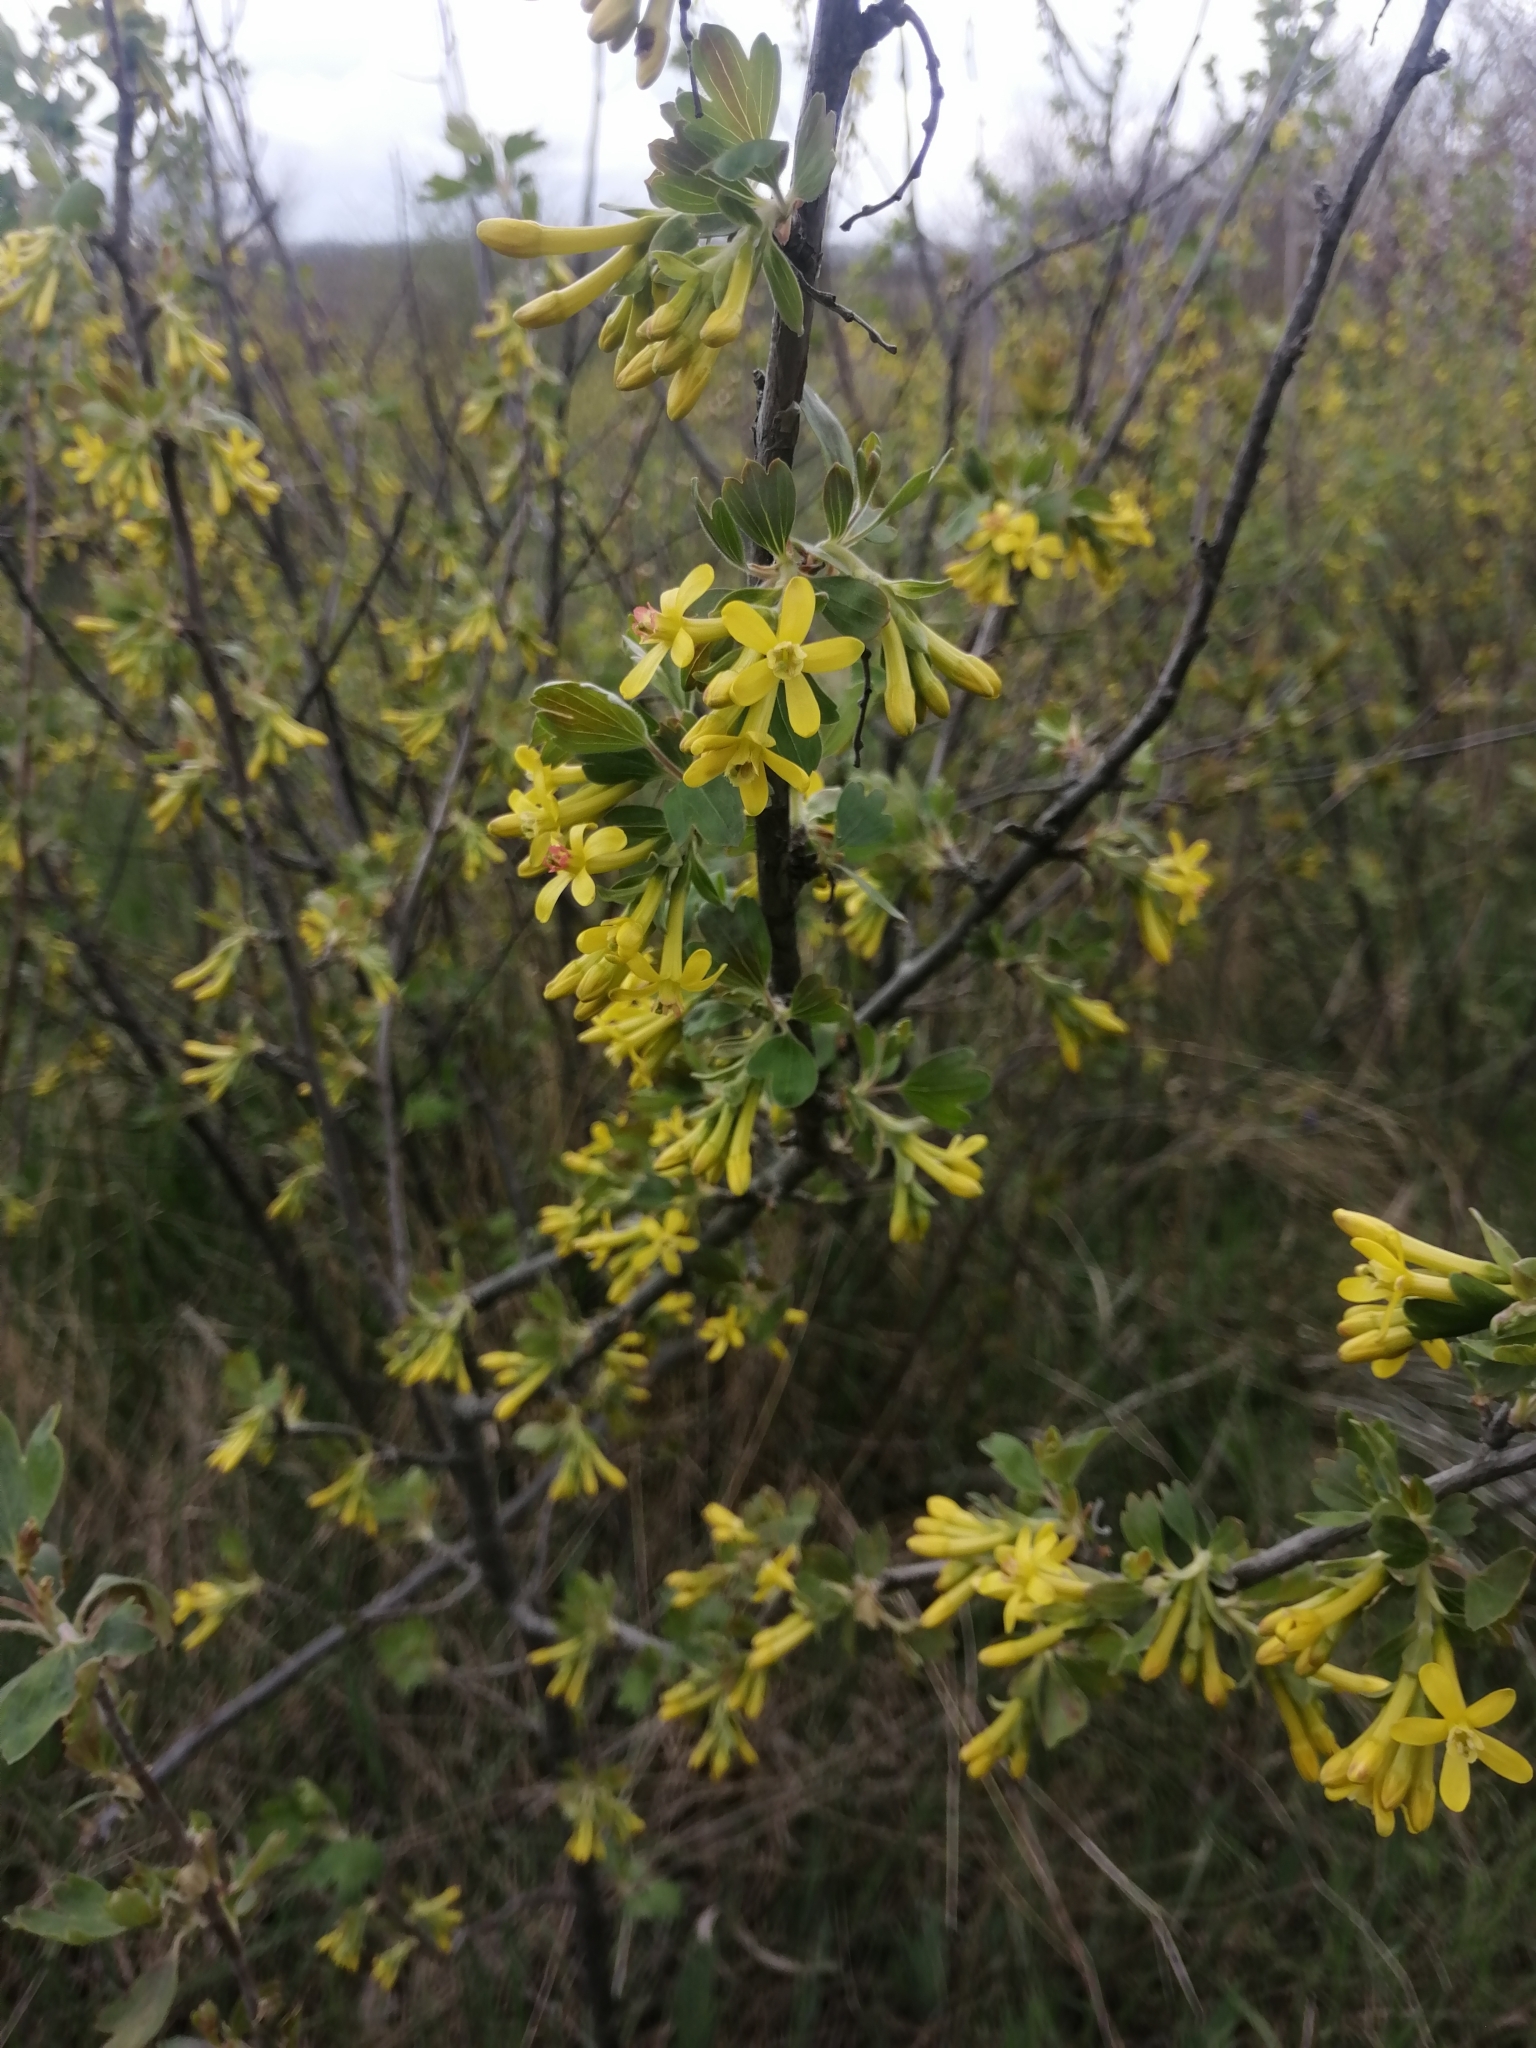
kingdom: Plantae
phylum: Tracheophyta
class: Magnoliopsida
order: Saxifragales
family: Grossulariaceae
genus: Ribes
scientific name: Ribes aureum
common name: Golden currant
